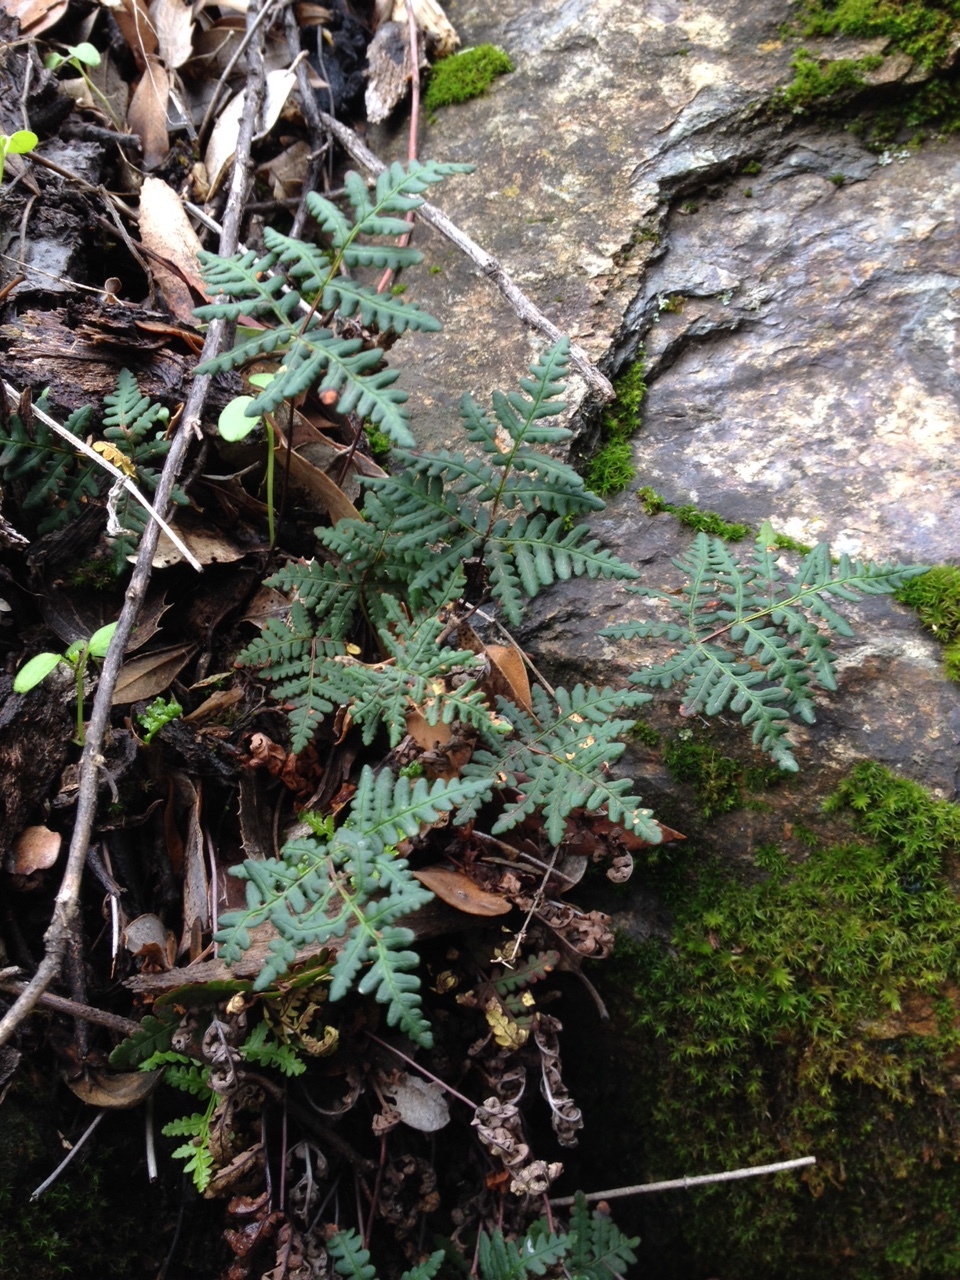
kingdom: Plantae
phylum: Tracheophyta
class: Polypodiopsida
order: Polypodiales
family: Pteridaceae
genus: Pentagramma
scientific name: Pentagramma triangularis
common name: Gold fern
